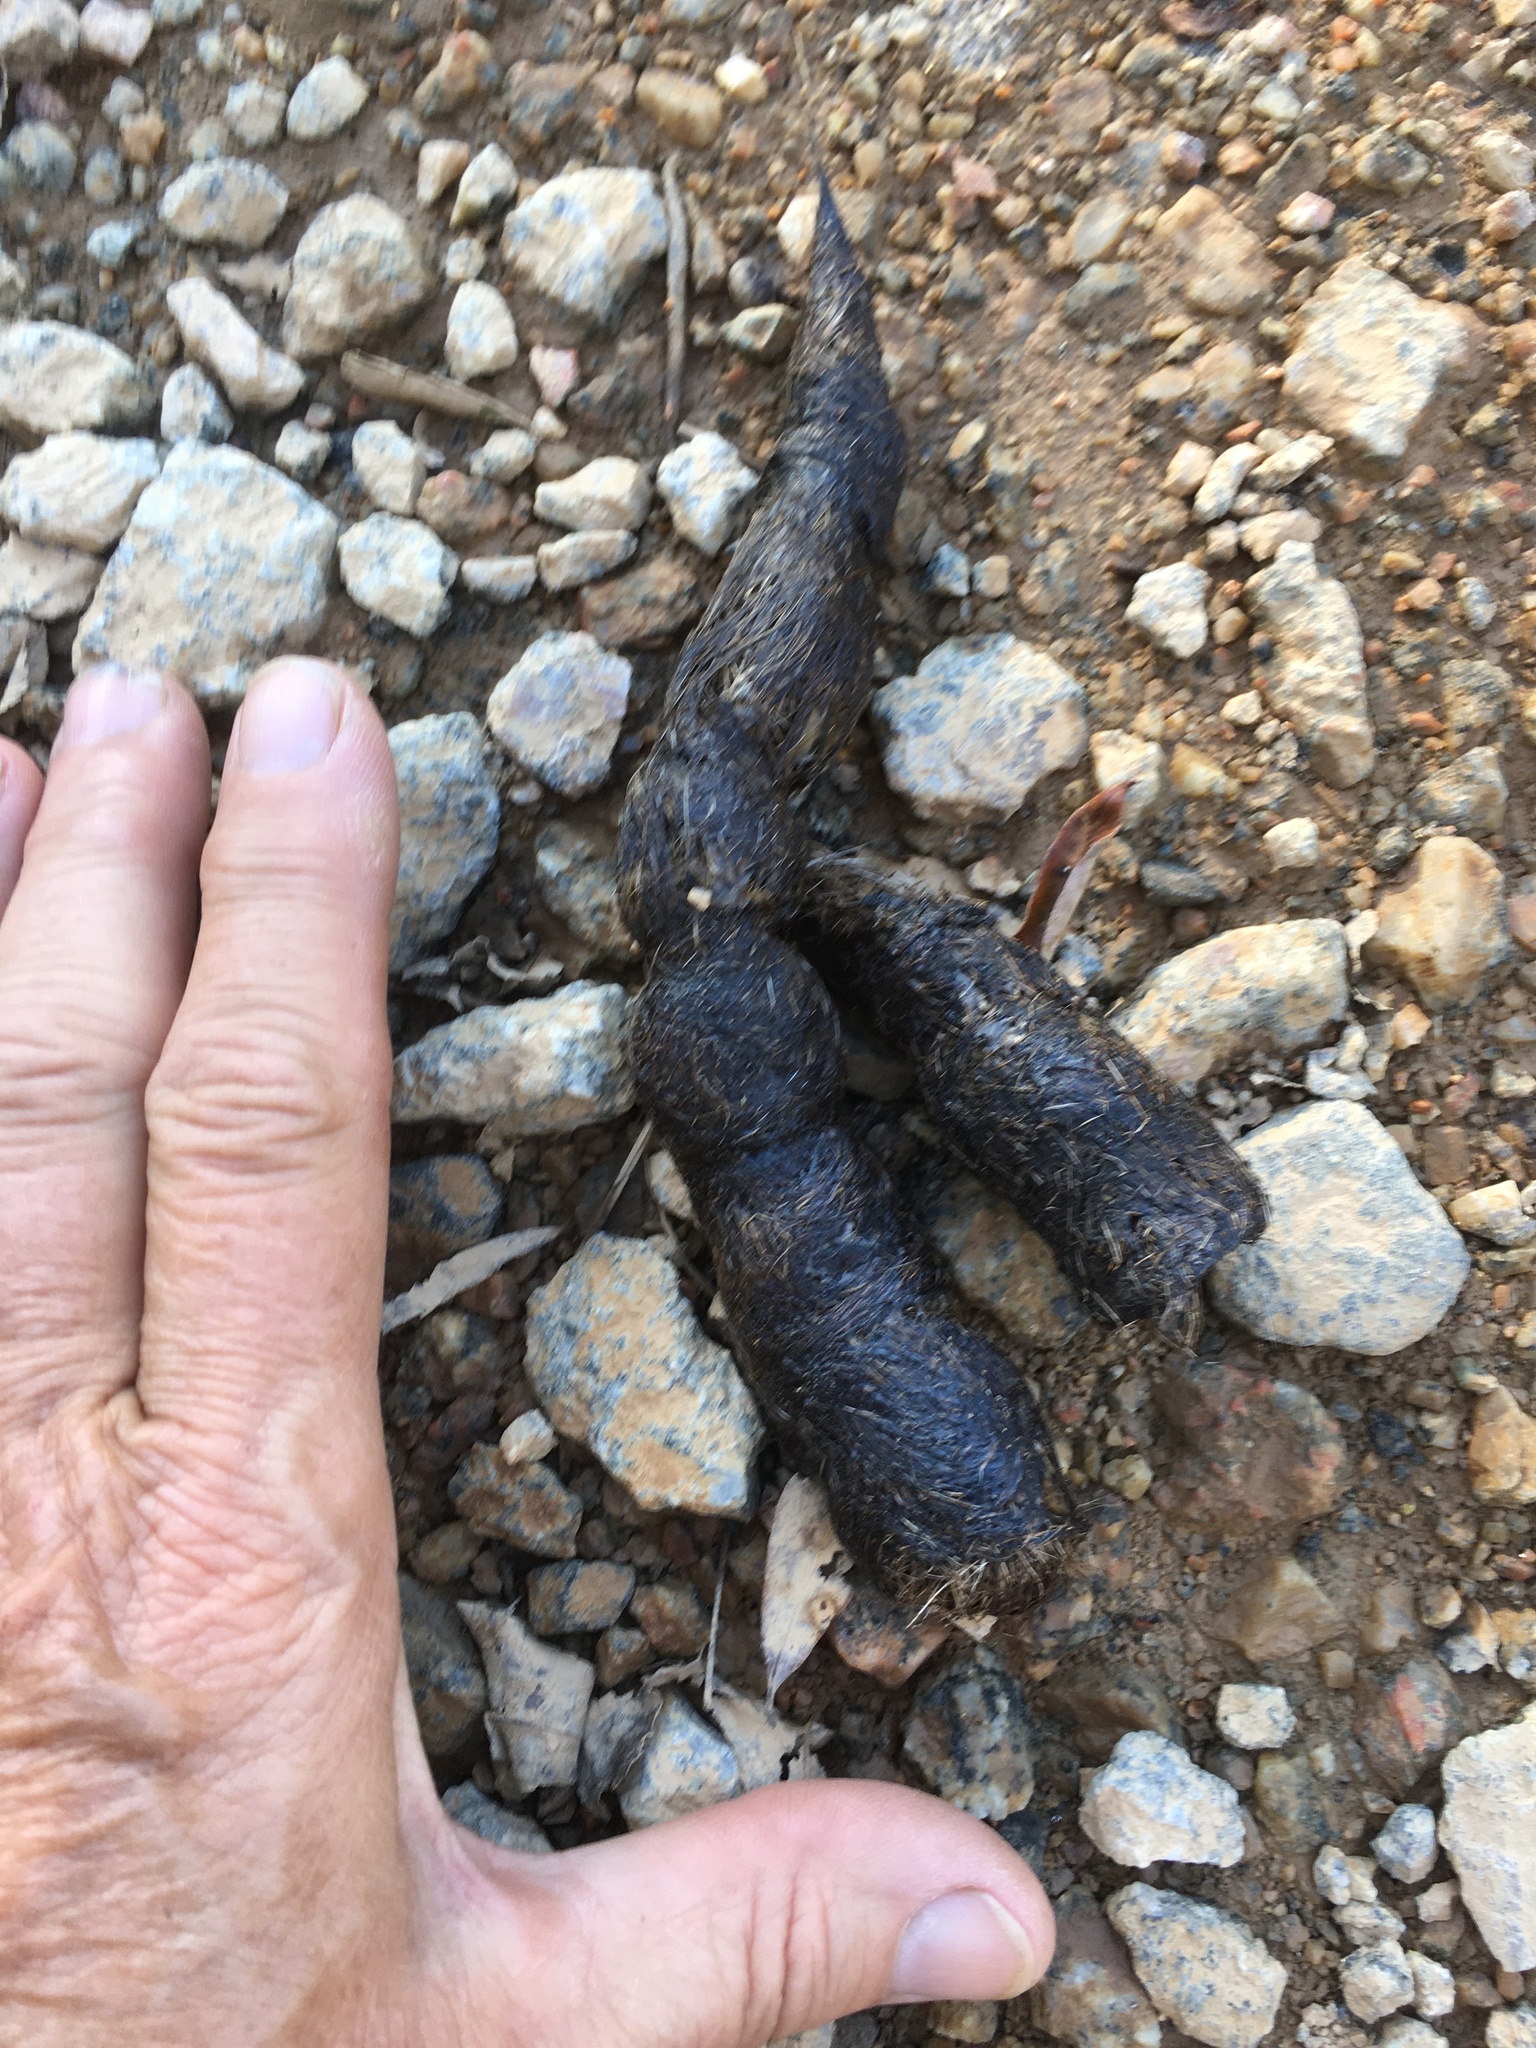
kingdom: Animalia
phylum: Chordata
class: Mammalia
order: Carnivora
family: Canidae
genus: Canis
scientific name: Canis latrans
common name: Coyote
